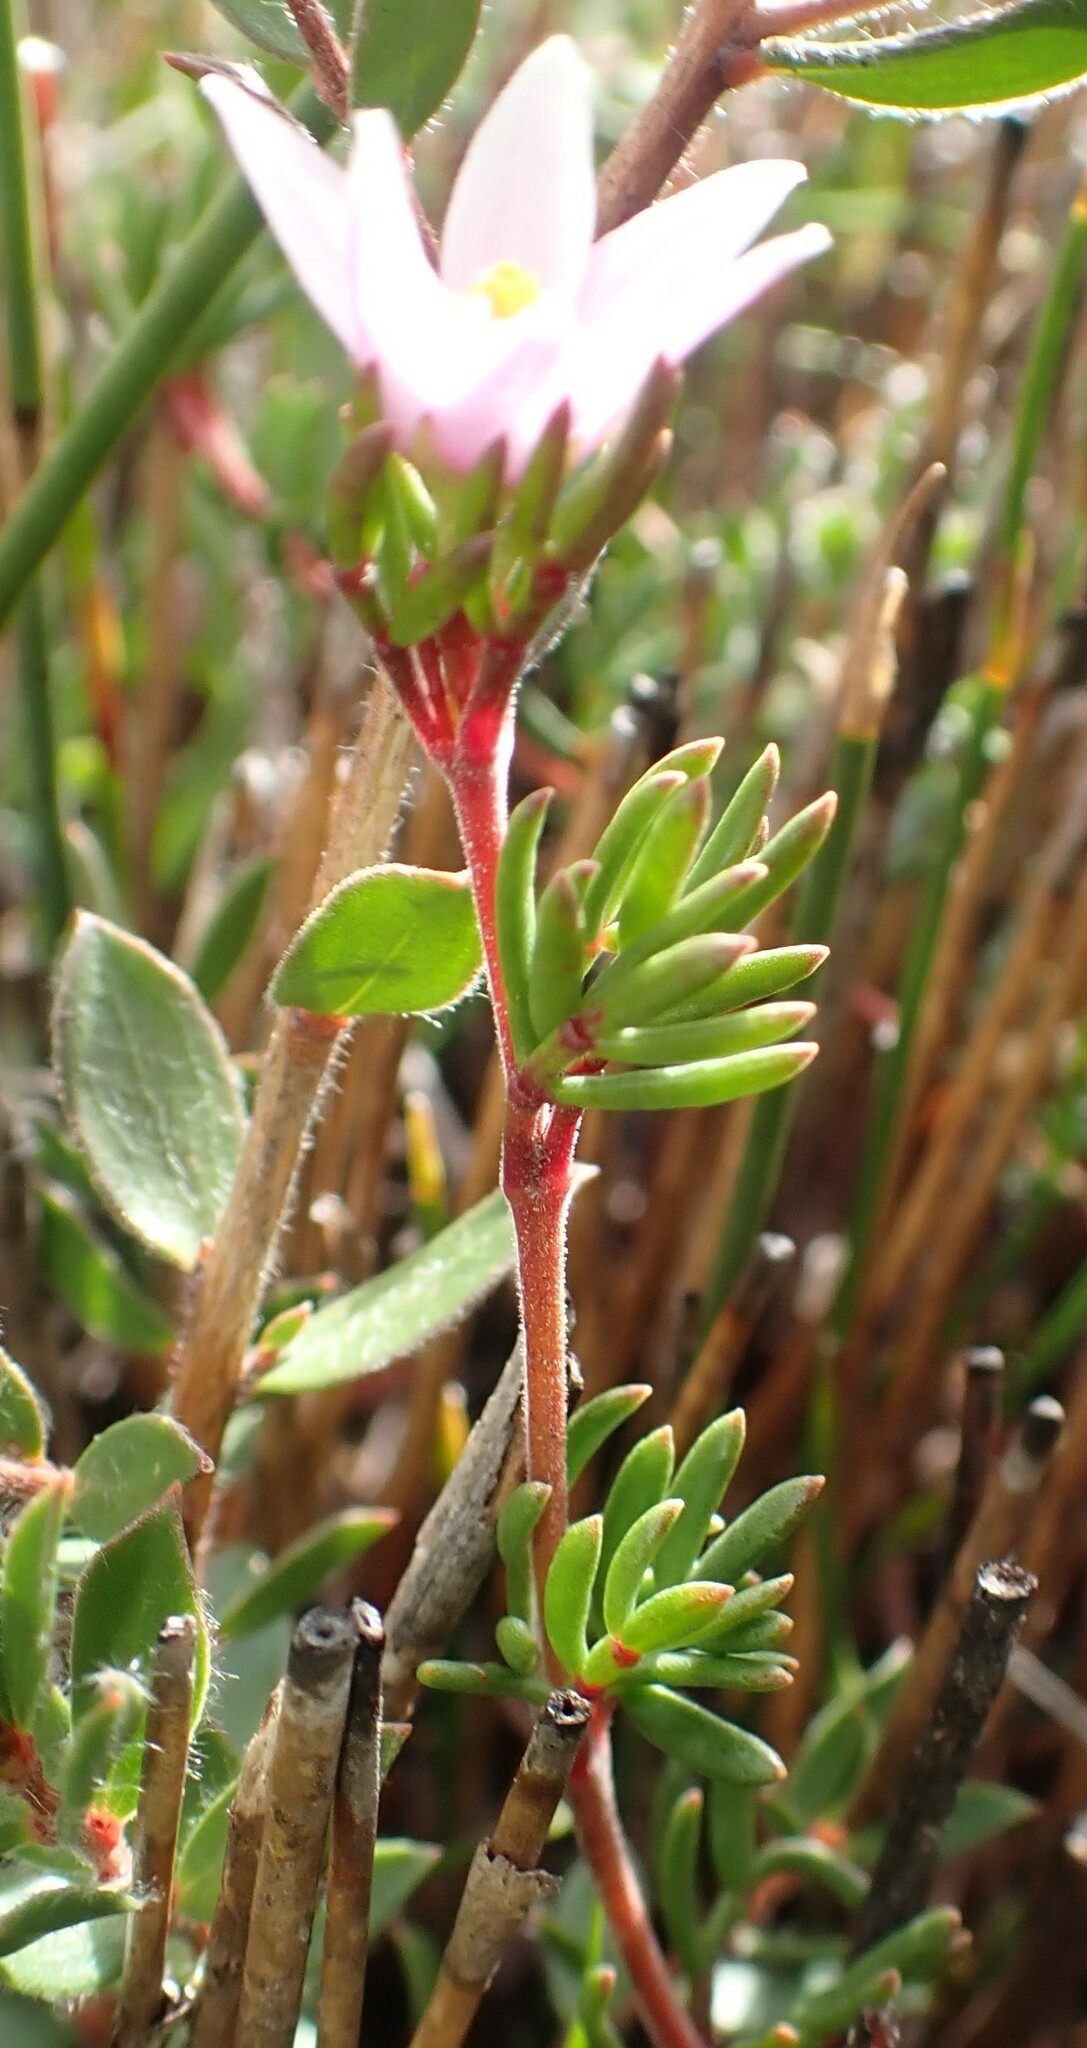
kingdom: Plantae
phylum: Tracheophyta
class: Magnoliopsida
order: Sapindales
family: Rutaceae
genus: Boronia
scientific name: Boronia elisabethiae
